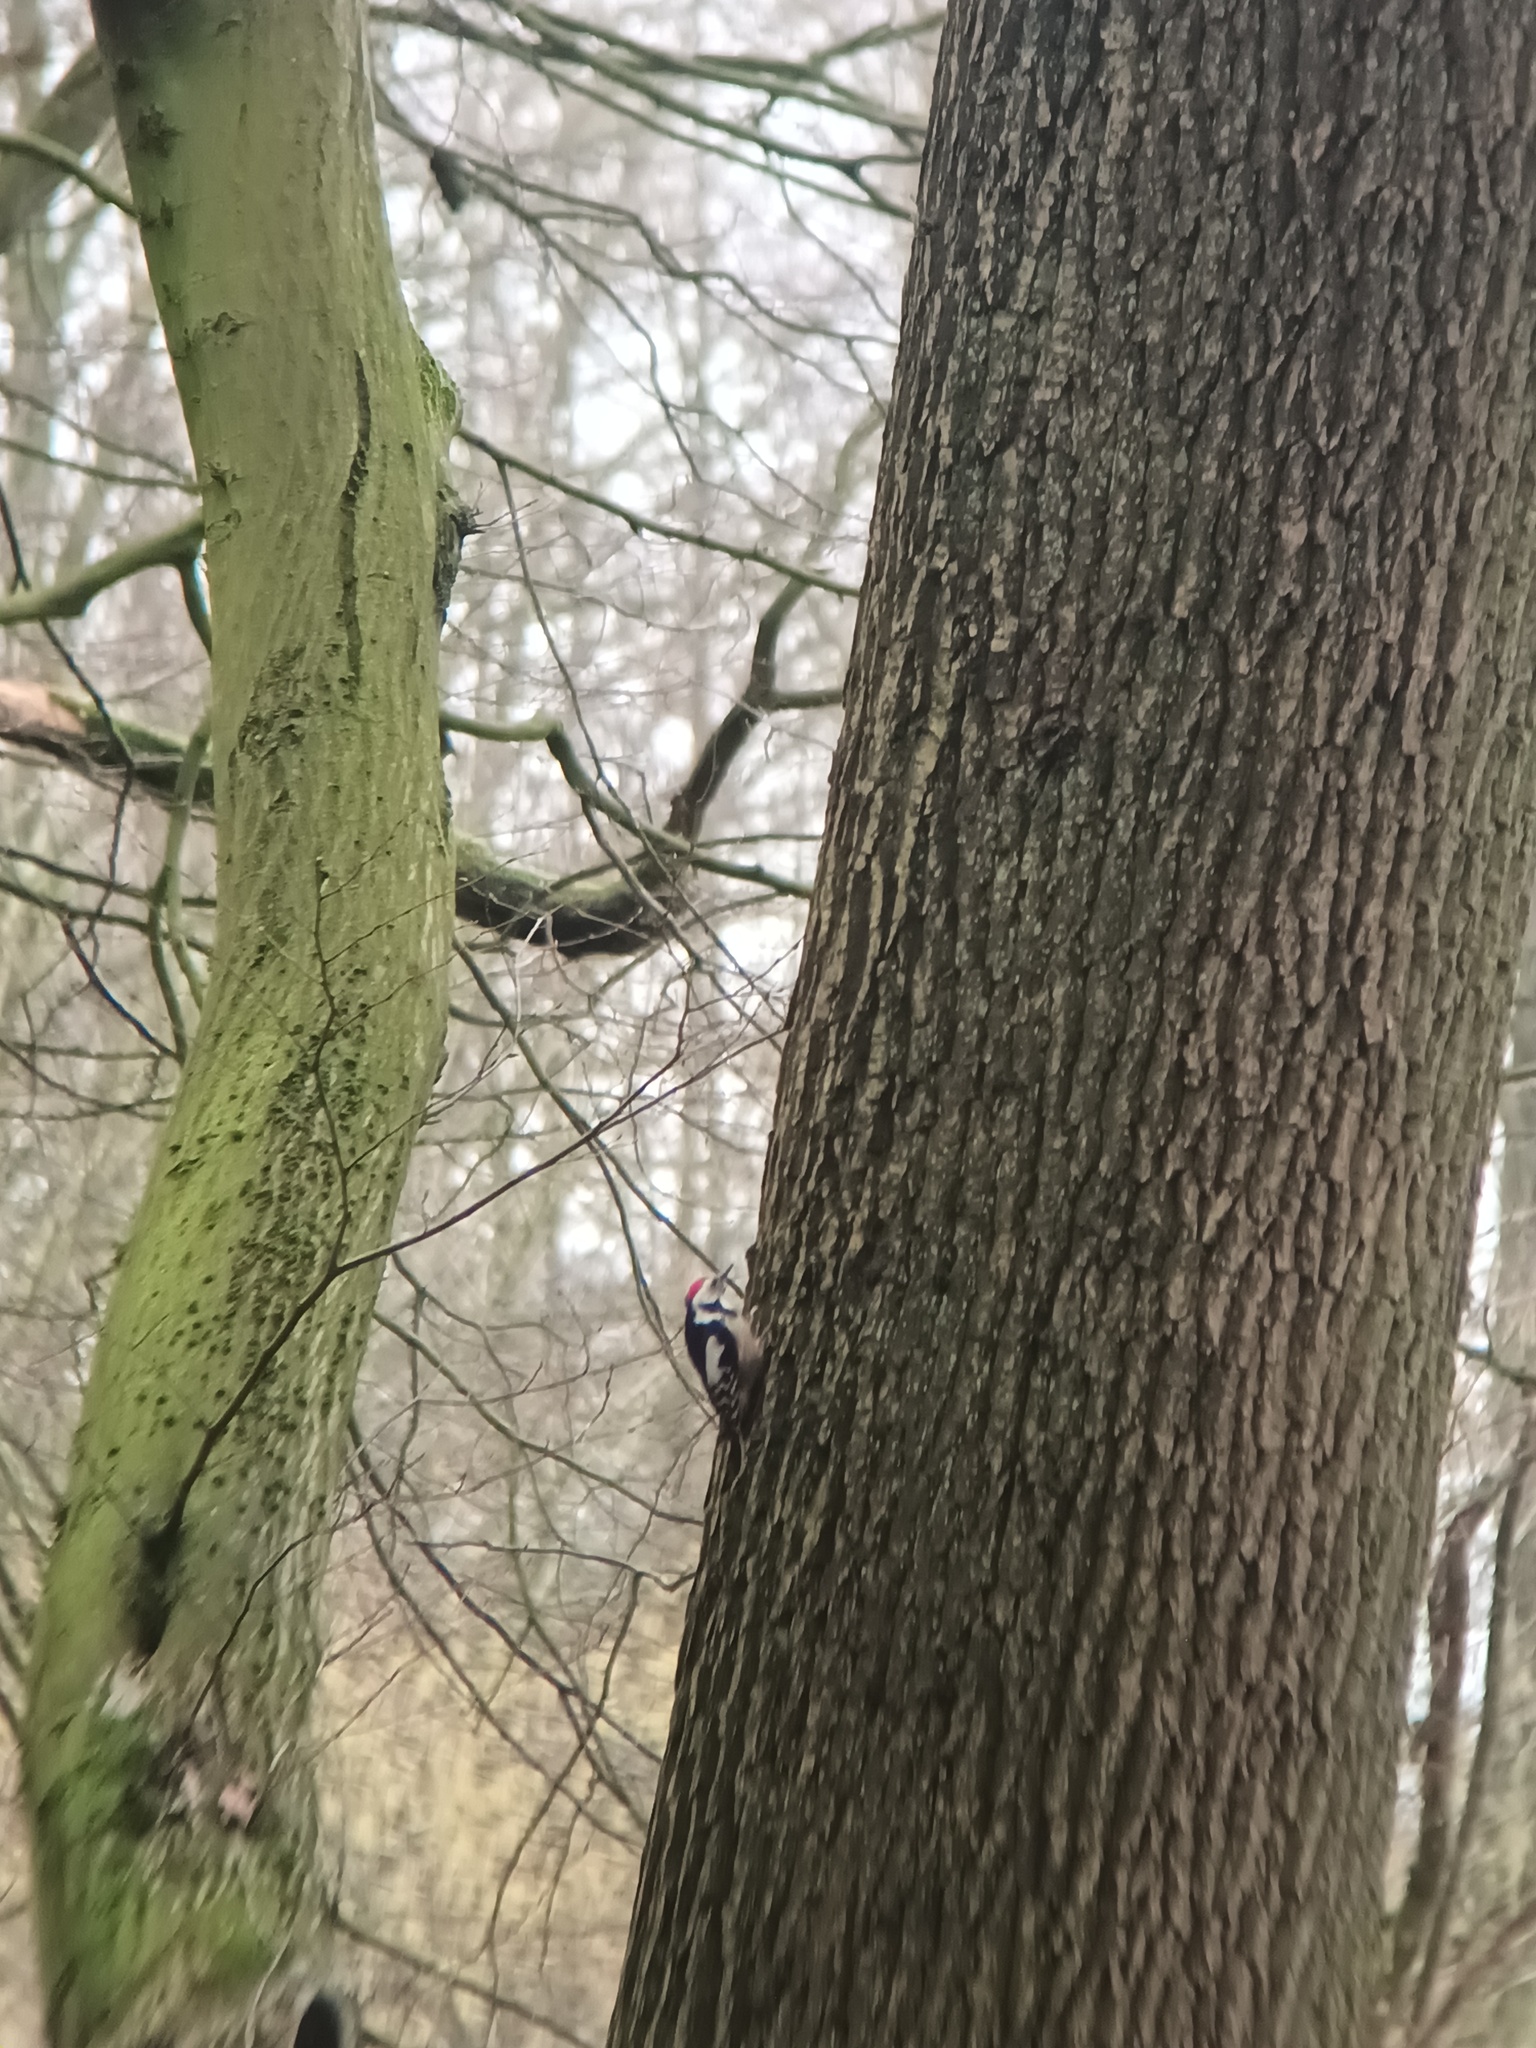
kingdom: Animalia
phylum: Chordata
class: Aves
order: Piciformes
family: Picidae
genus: Dendrocoptes
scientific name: Dendrocoptes medius
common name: Middle spotted woodpecker
